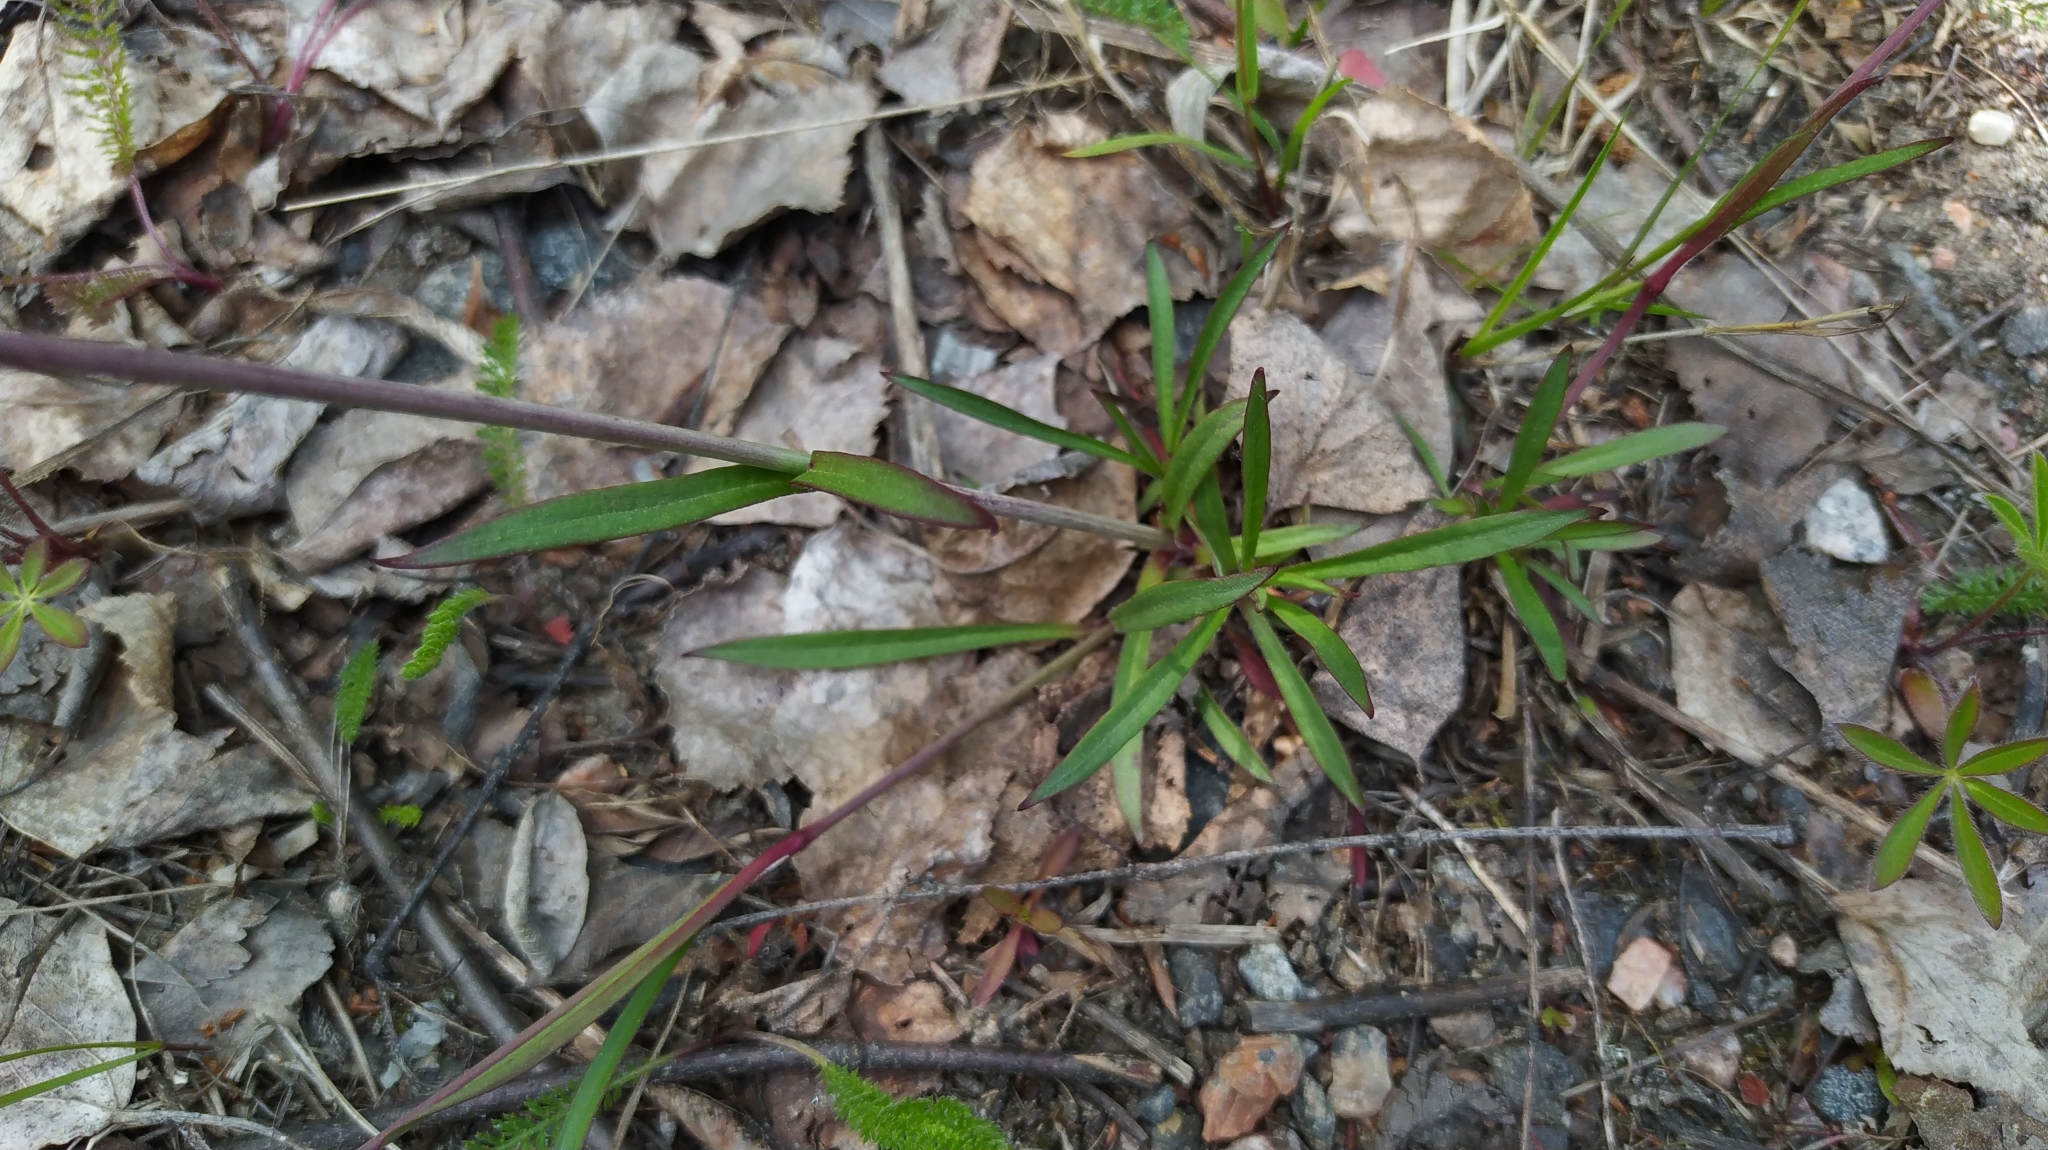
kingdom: Plantae
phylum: Tracheophyta
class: Magnoliopsida
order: Caryophyllales
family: Caryophyllaceae
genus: Viscaria
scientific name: Viscaria vulgaris
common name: Clammy campion
